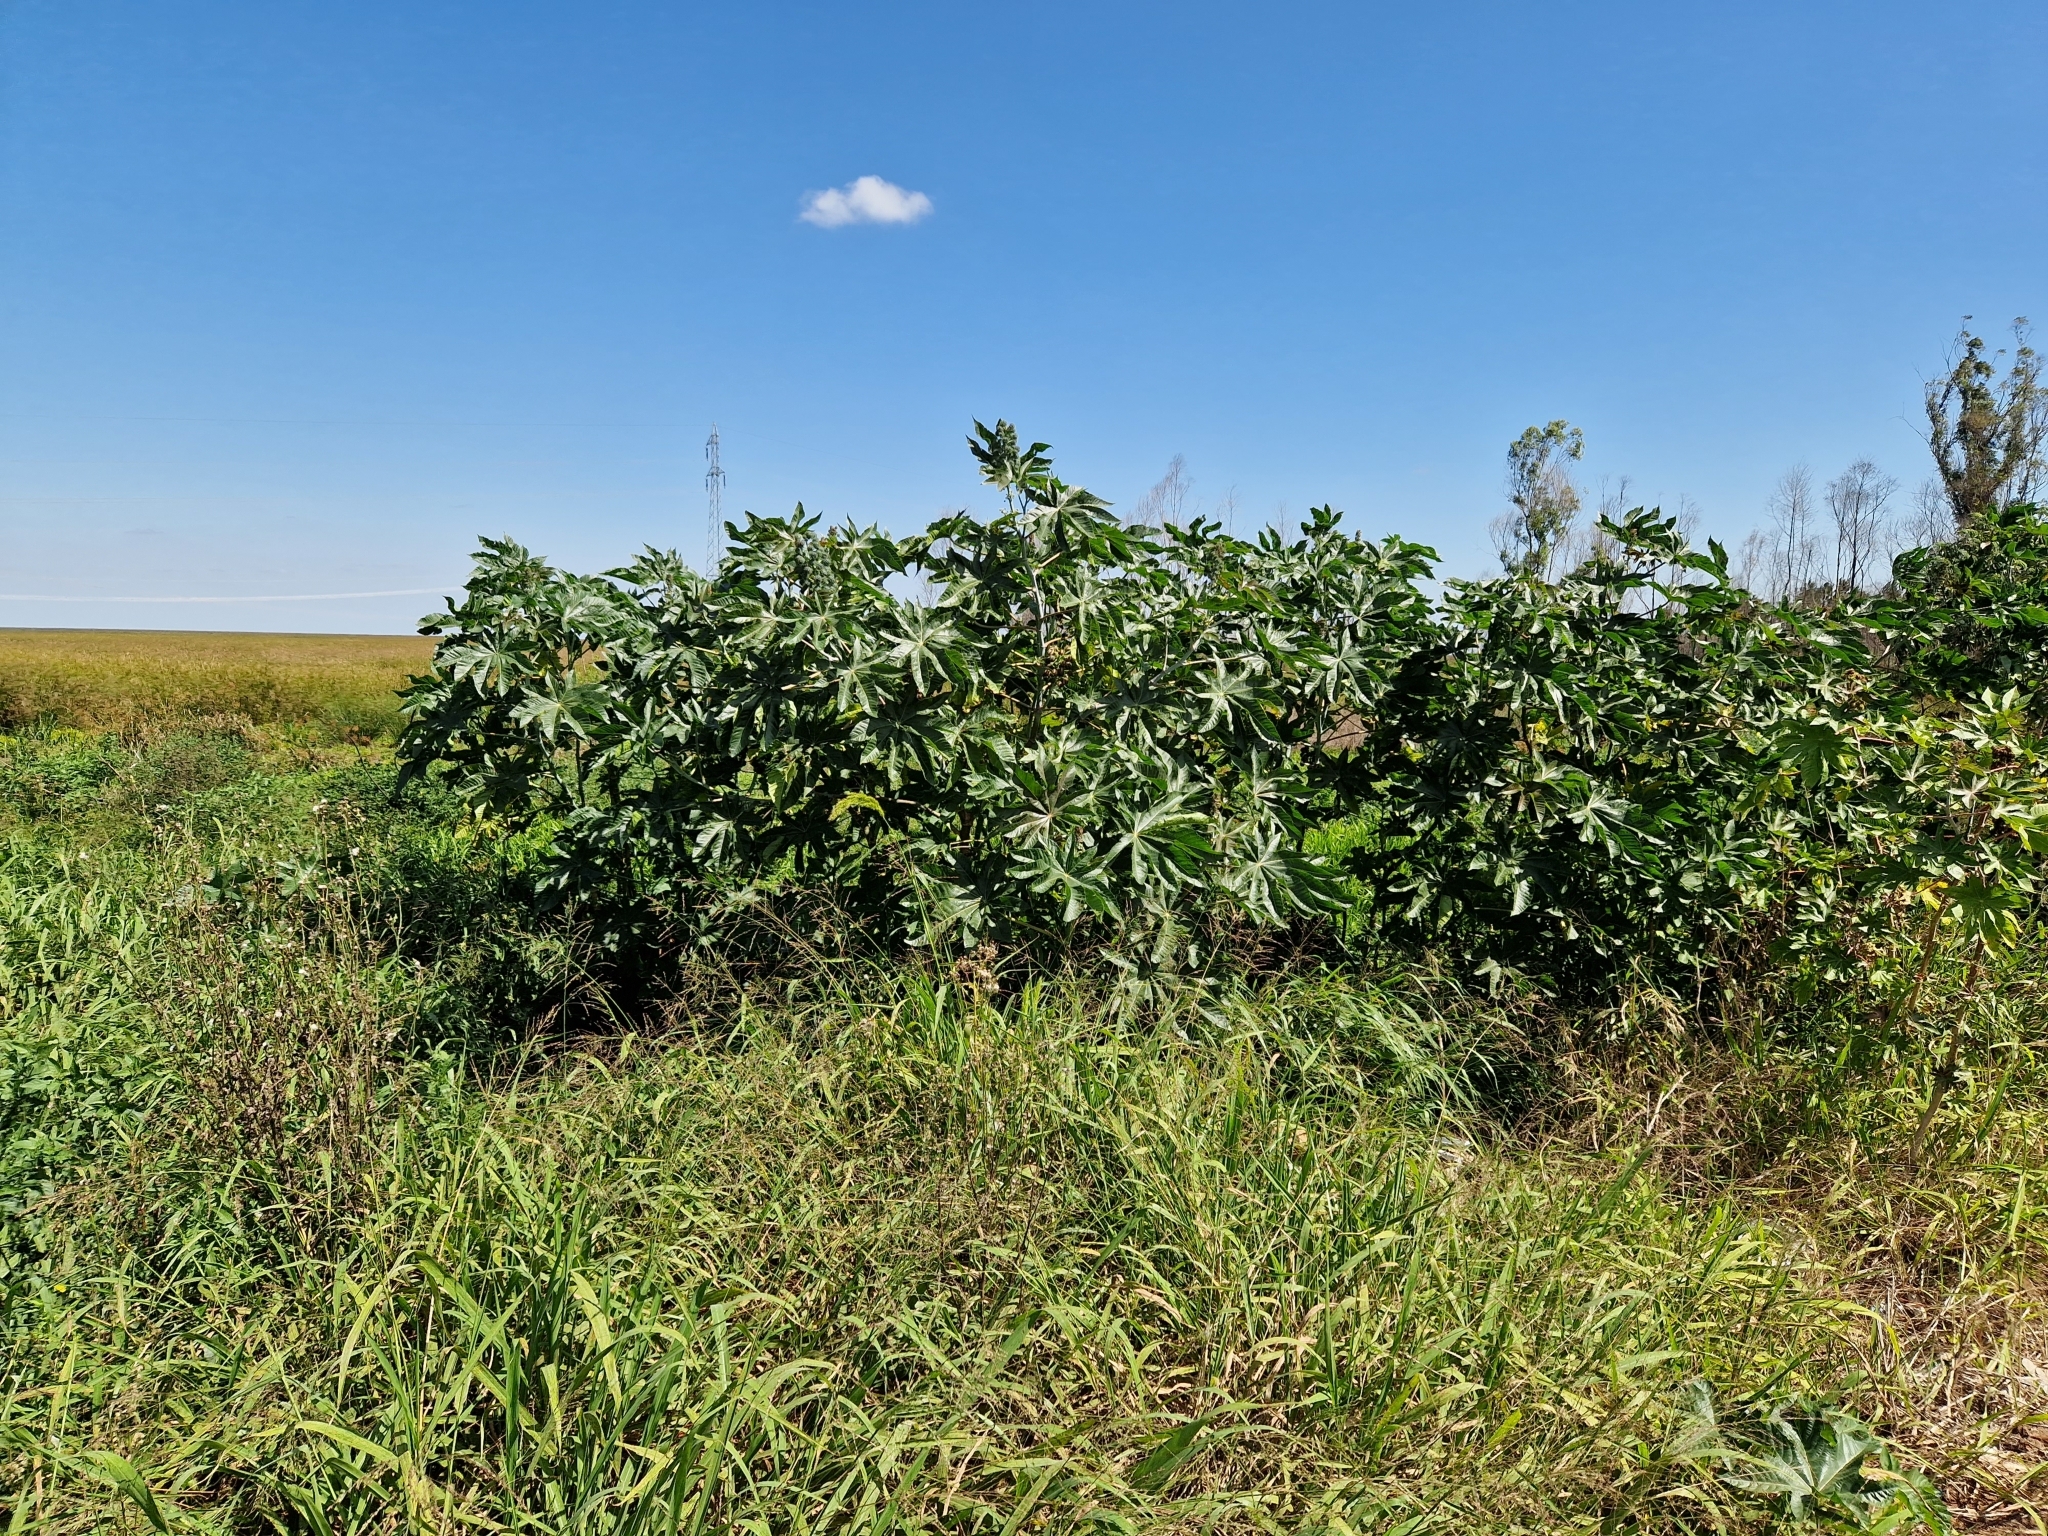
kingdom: Plantae
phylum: Tracheophyta
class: Magnoliopsida
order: Malpighiales
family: Euphorbiaceae
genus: Ricinus
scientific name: Ricinus communis
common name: Castor-oil-plant
